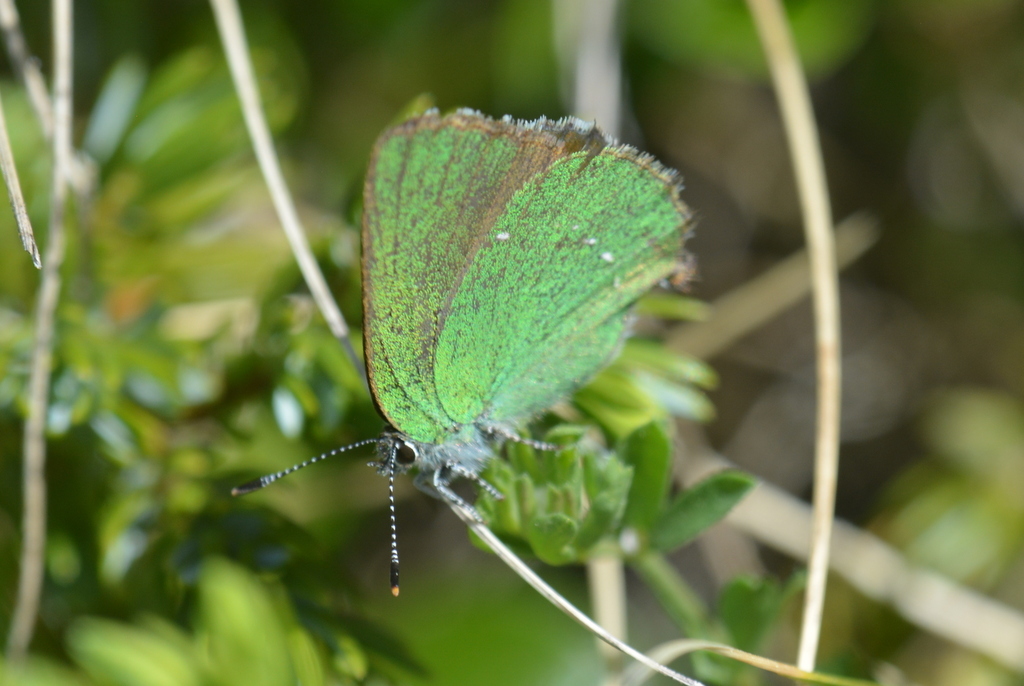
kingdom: Animalia
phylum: Arthropoda
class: Insecta
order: Lepidoptera
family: Lycaenidae
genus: Callophrys
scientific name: Callophrys rubi
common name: Green hairstreak
